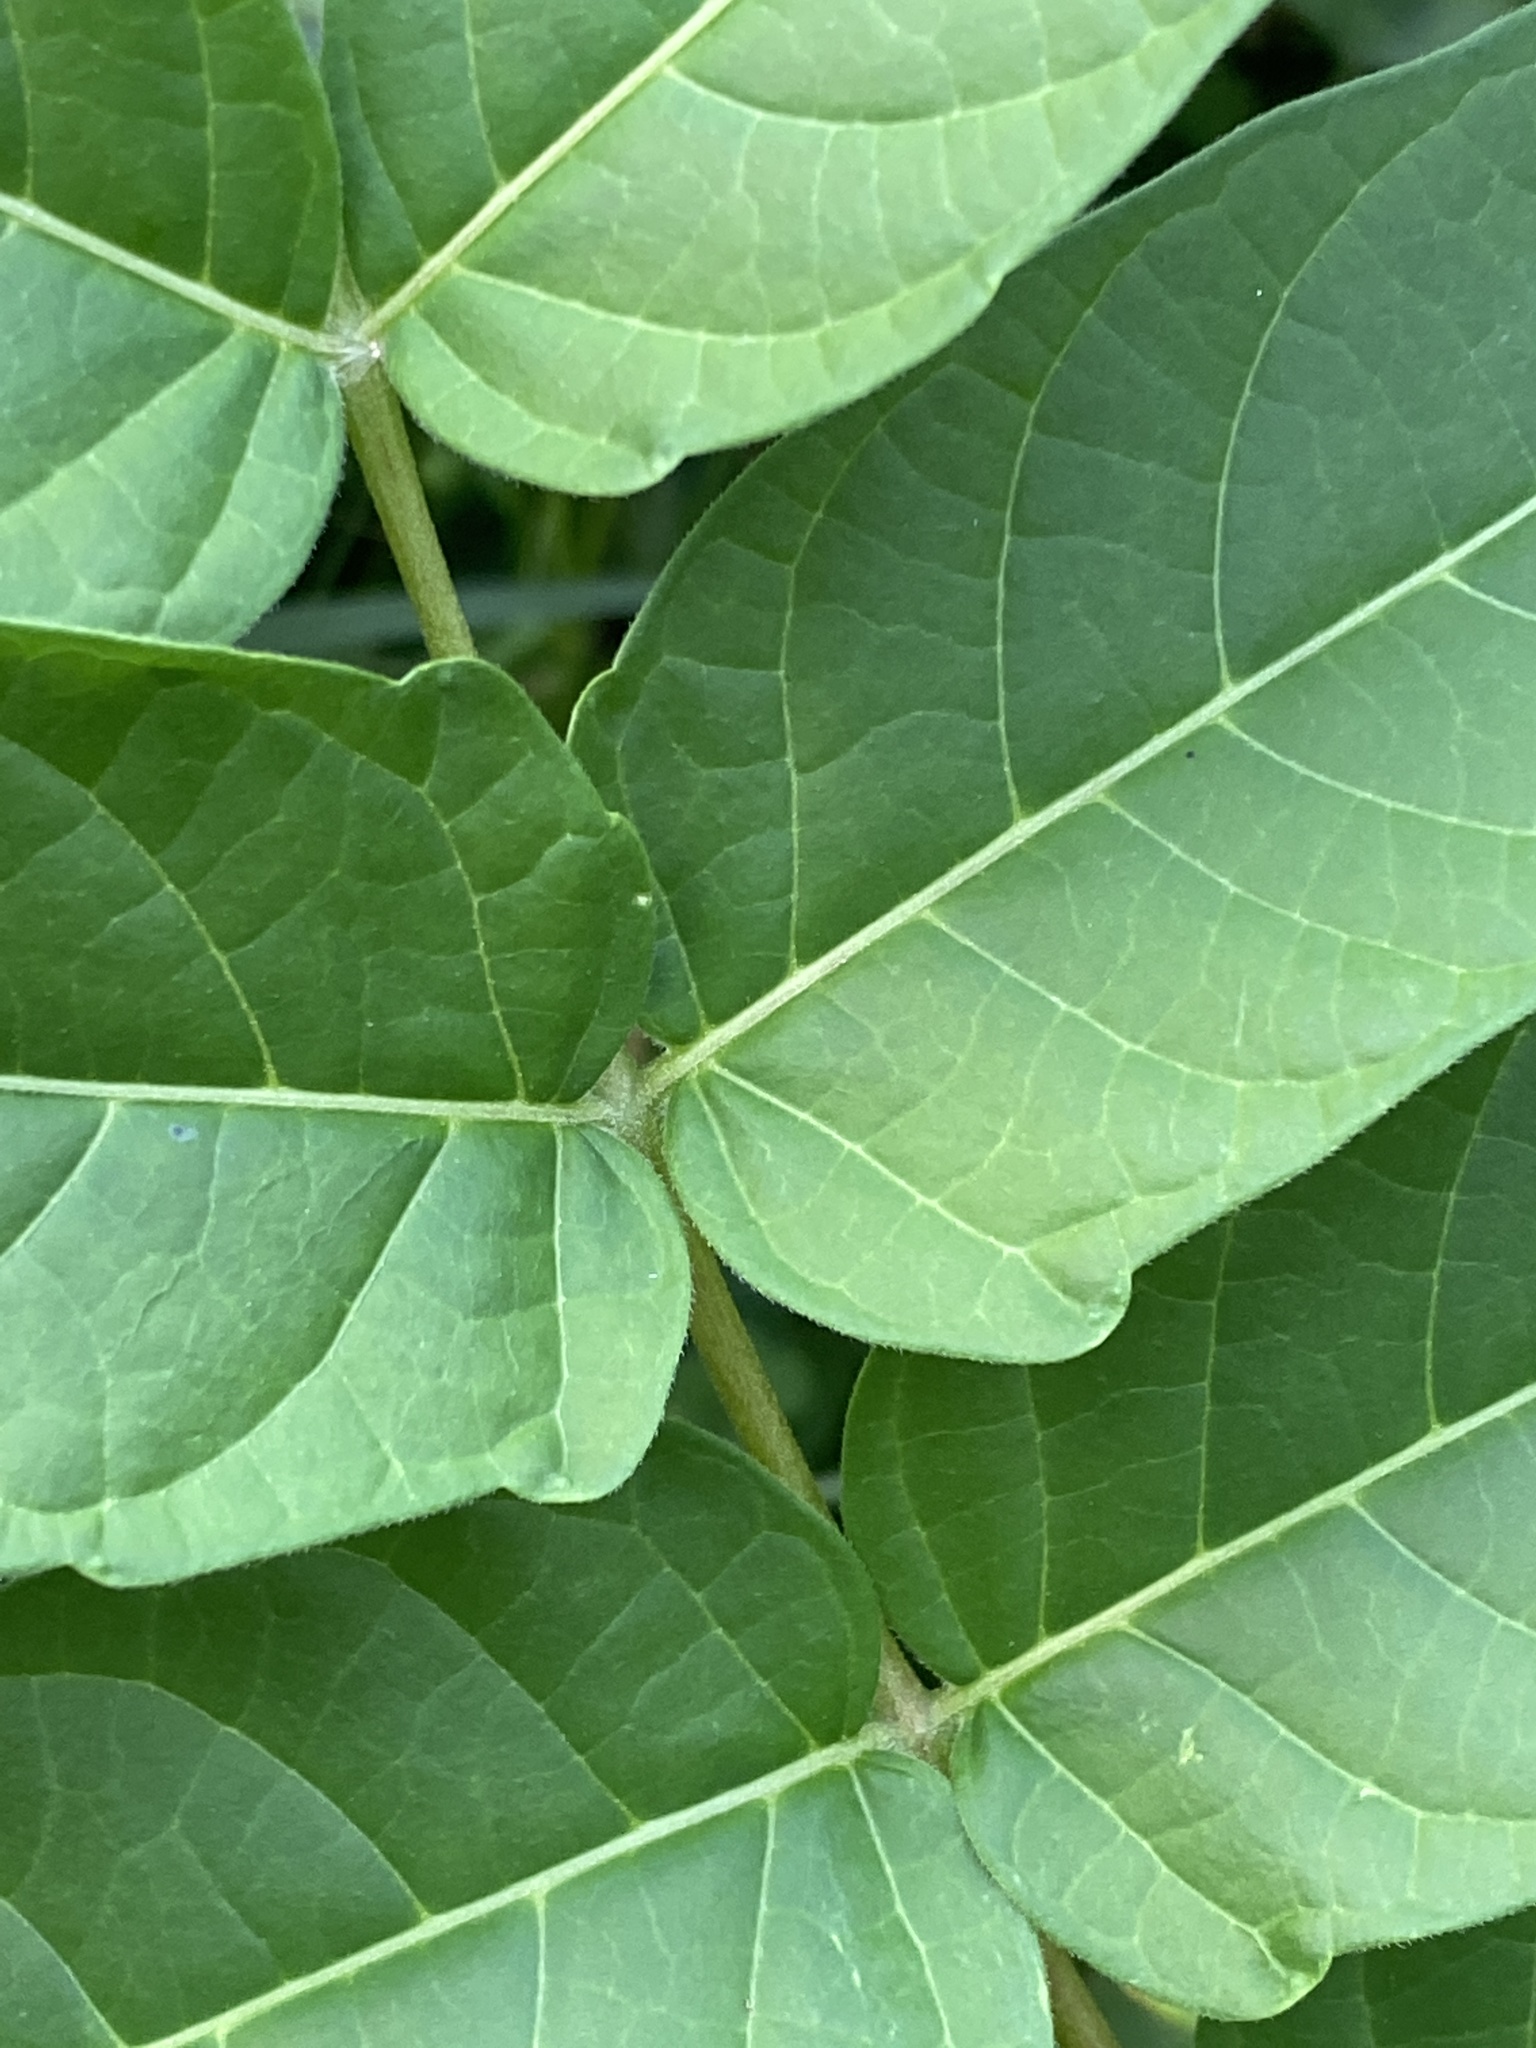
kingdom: Plantae
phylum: Tracheophyta
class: Magnoliopsida
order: Sapindales
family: Simaroubaceae
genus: Ailanthus
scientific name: Ailanthus altissima
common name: Tree-of-heaven
